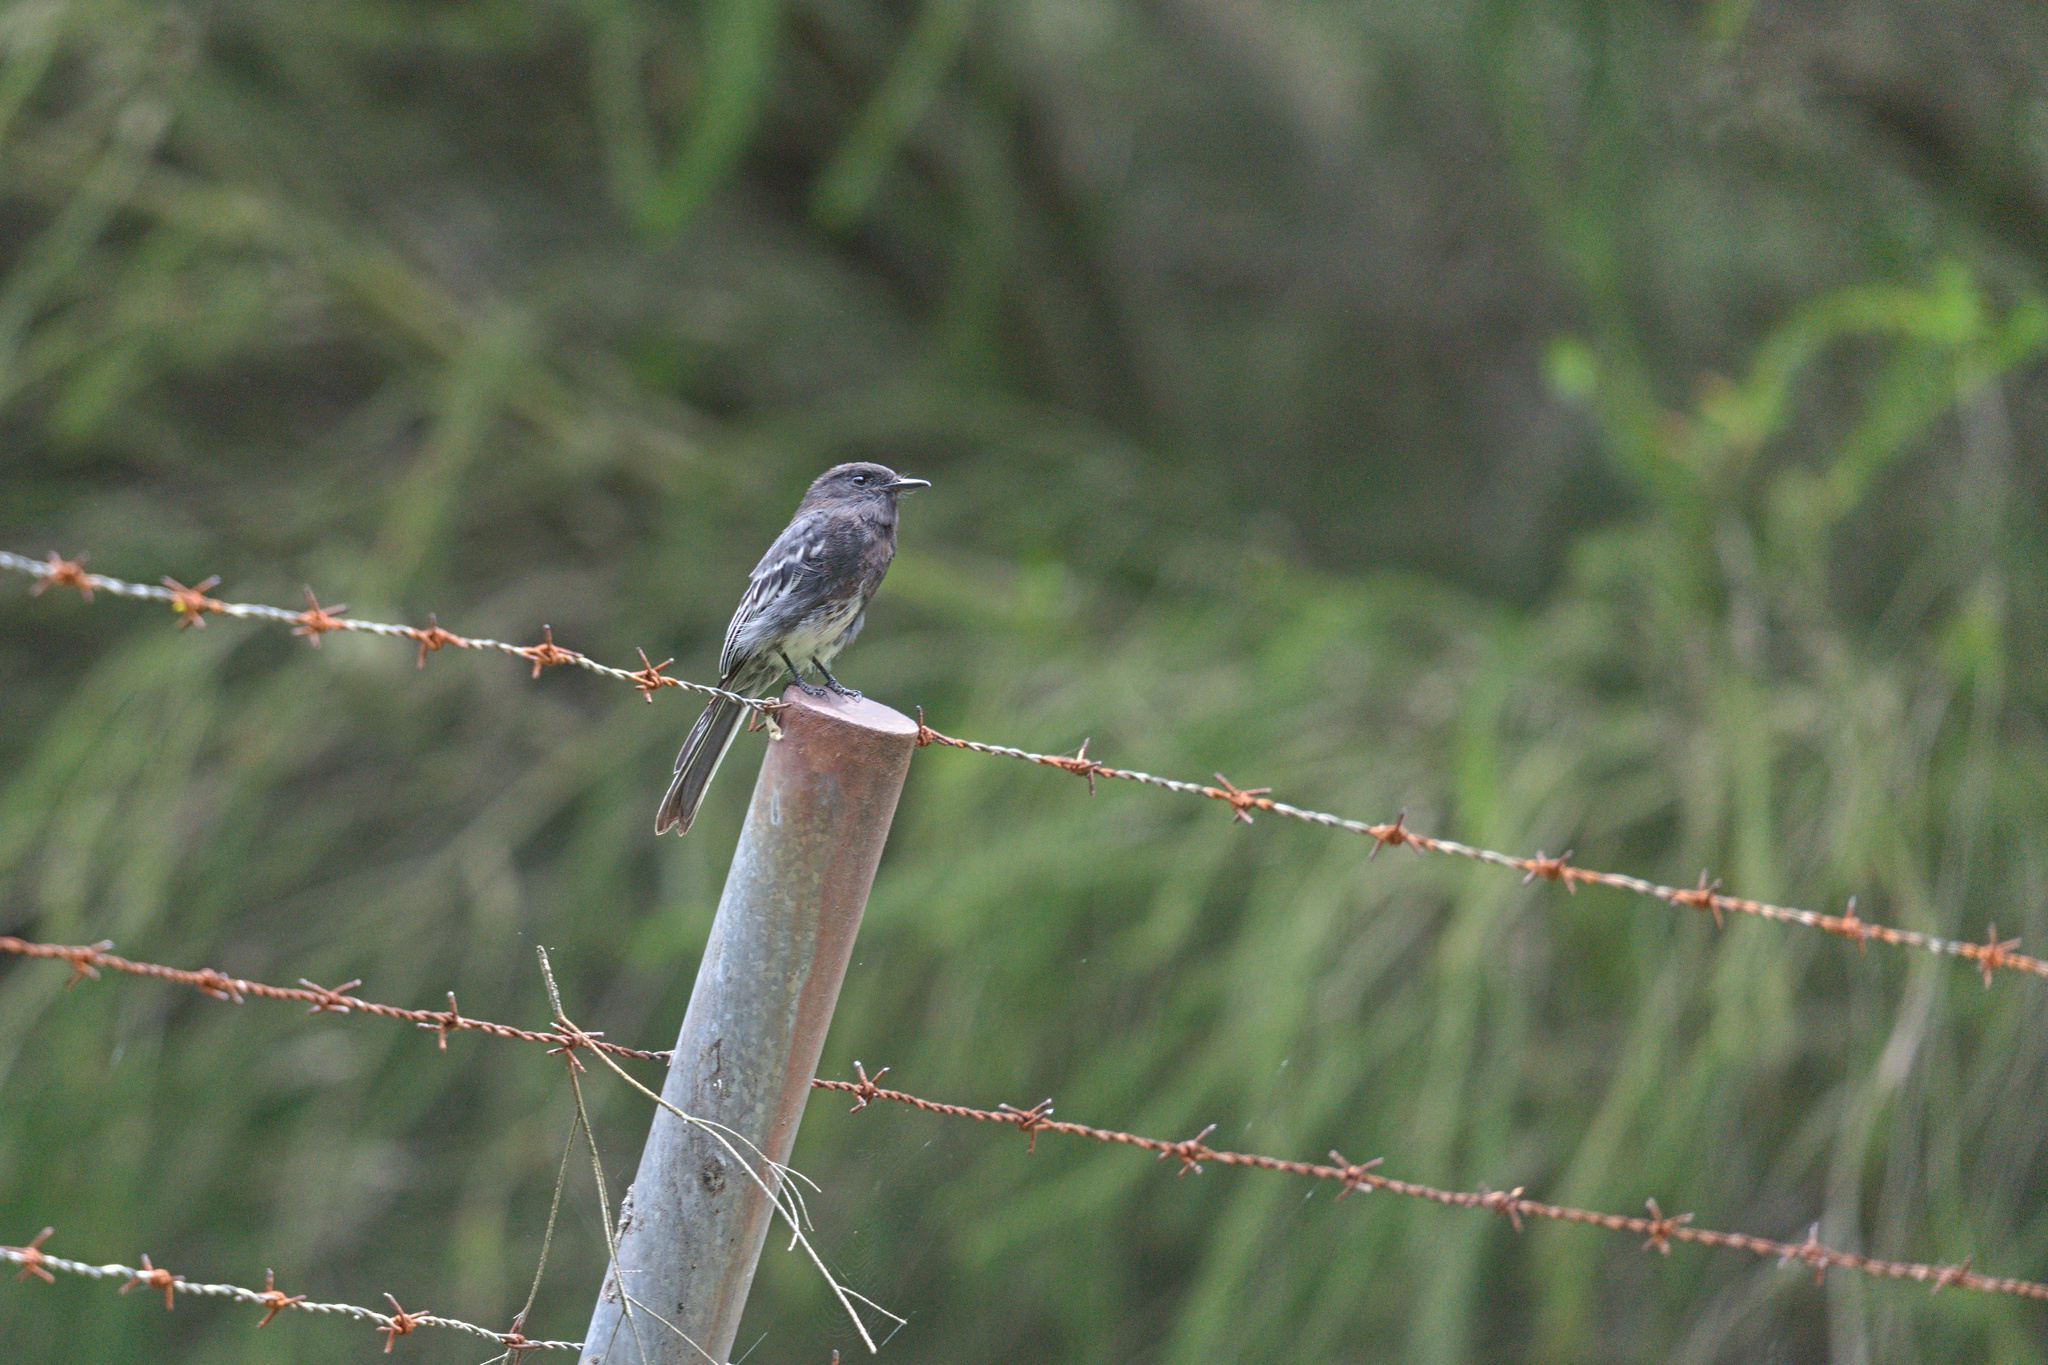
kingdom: Animalia
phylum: Chordata
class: Aves
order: Passeriformes
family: Tyrannidae
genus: Sayornis
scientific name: Sayornis nigricans
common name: Black phoebe
